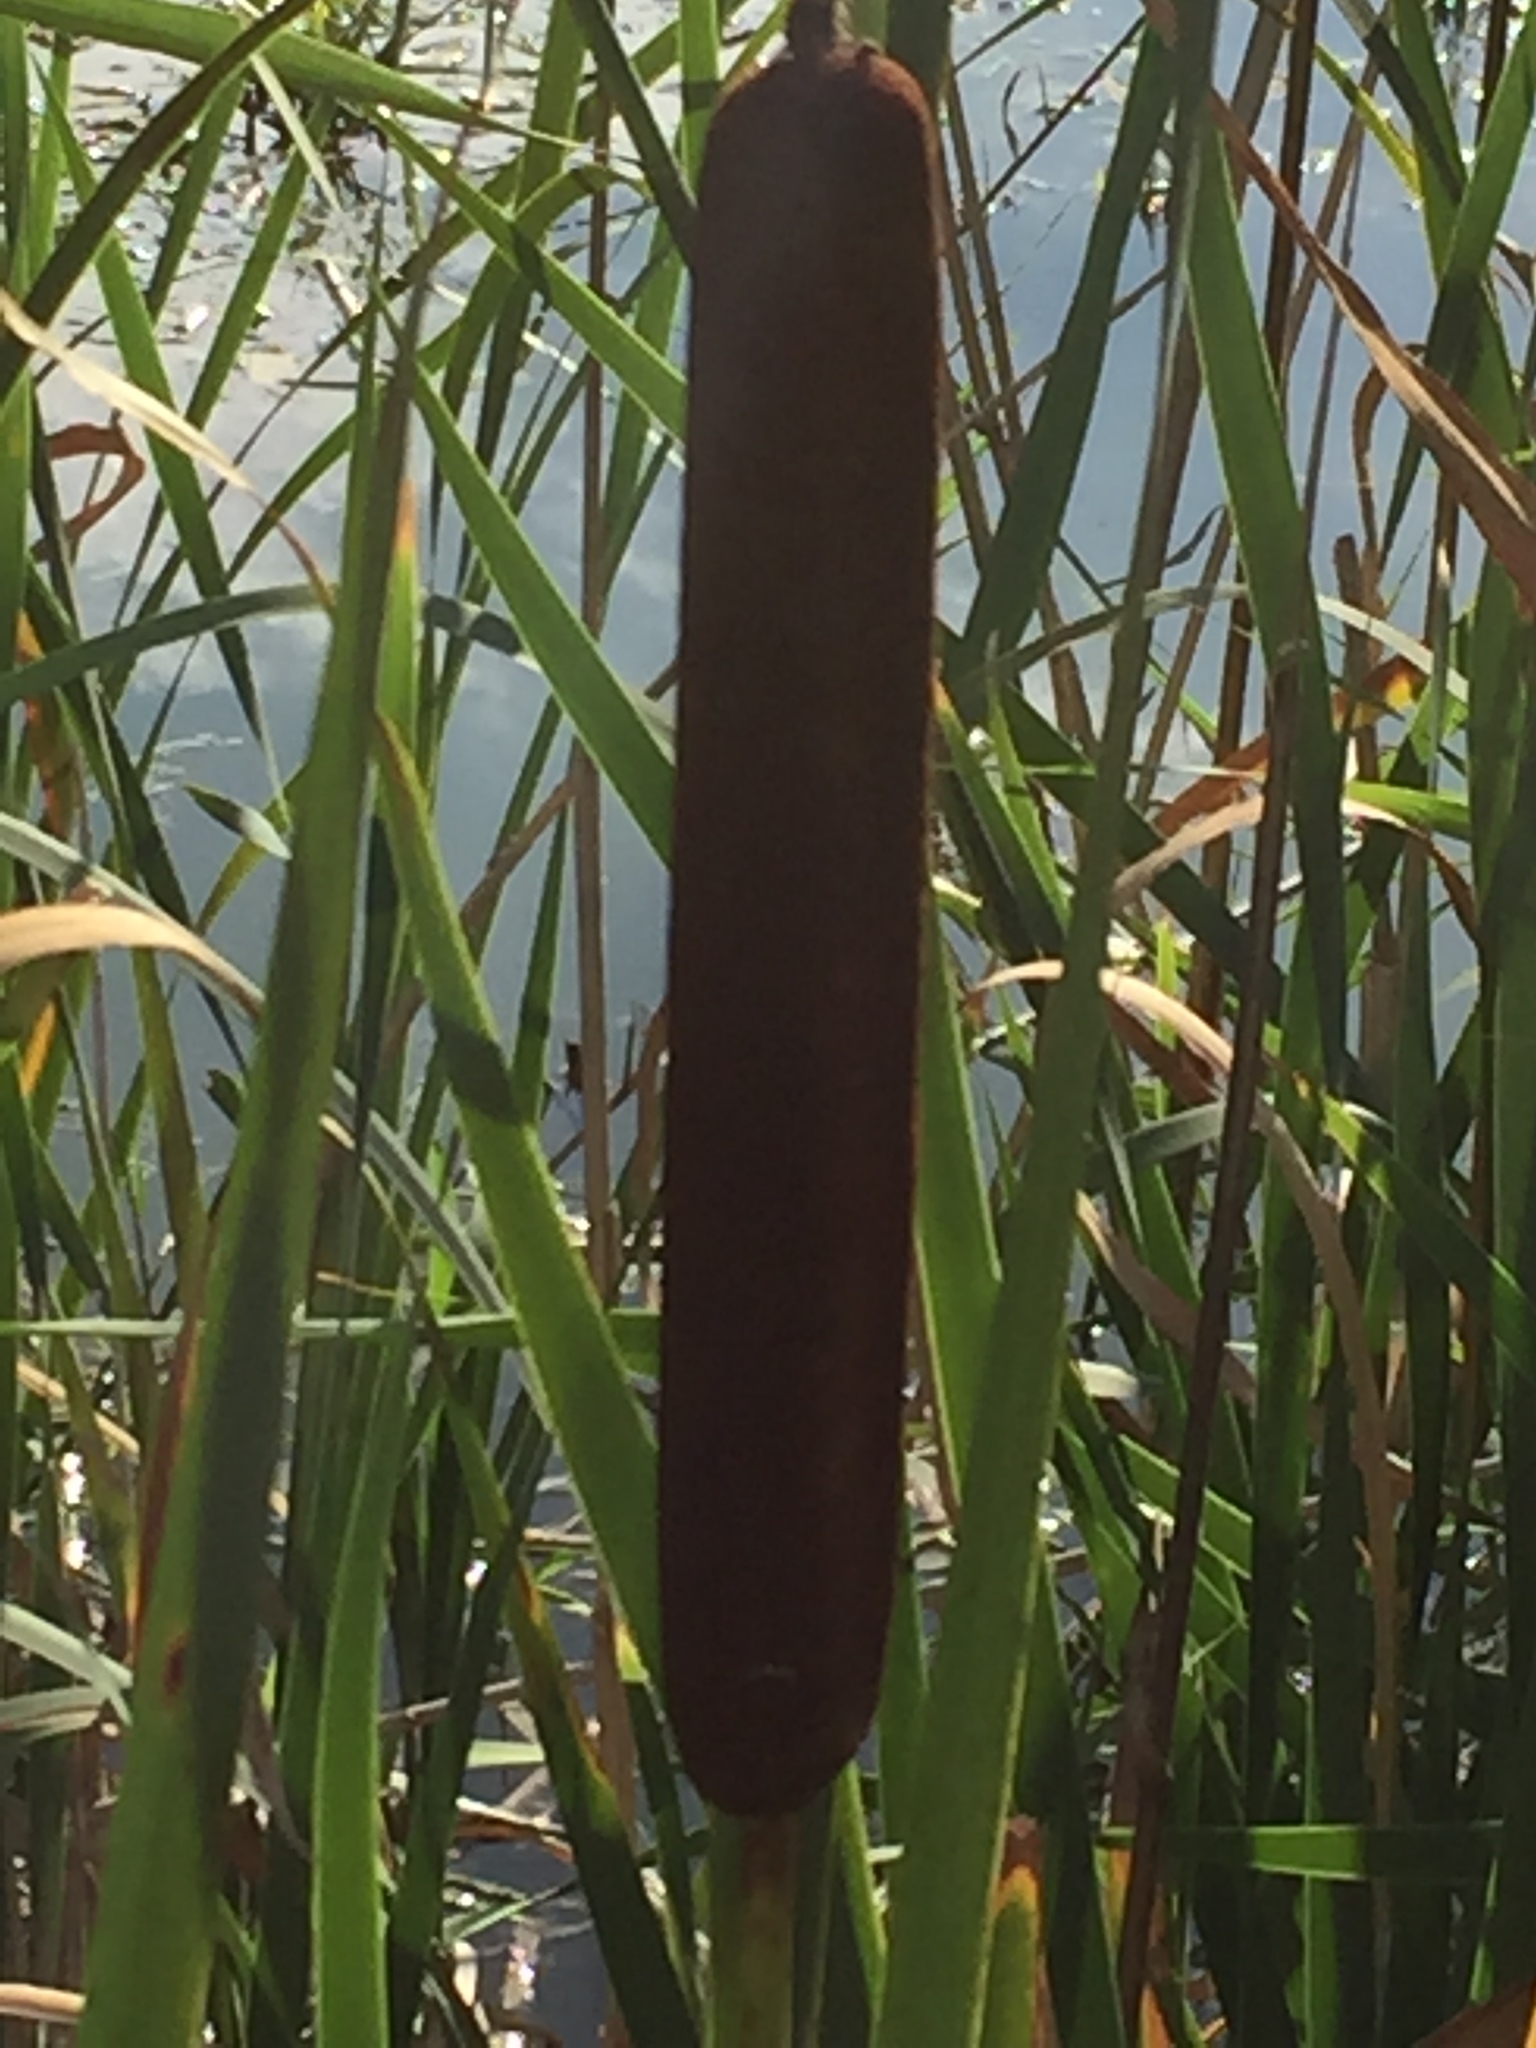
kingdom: Plantae
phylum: Tracheophyta
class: Liliopsida
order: Poales
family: Typhaceae
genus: Typha
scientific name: Typha latifolia
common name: Broadleaf cattail
